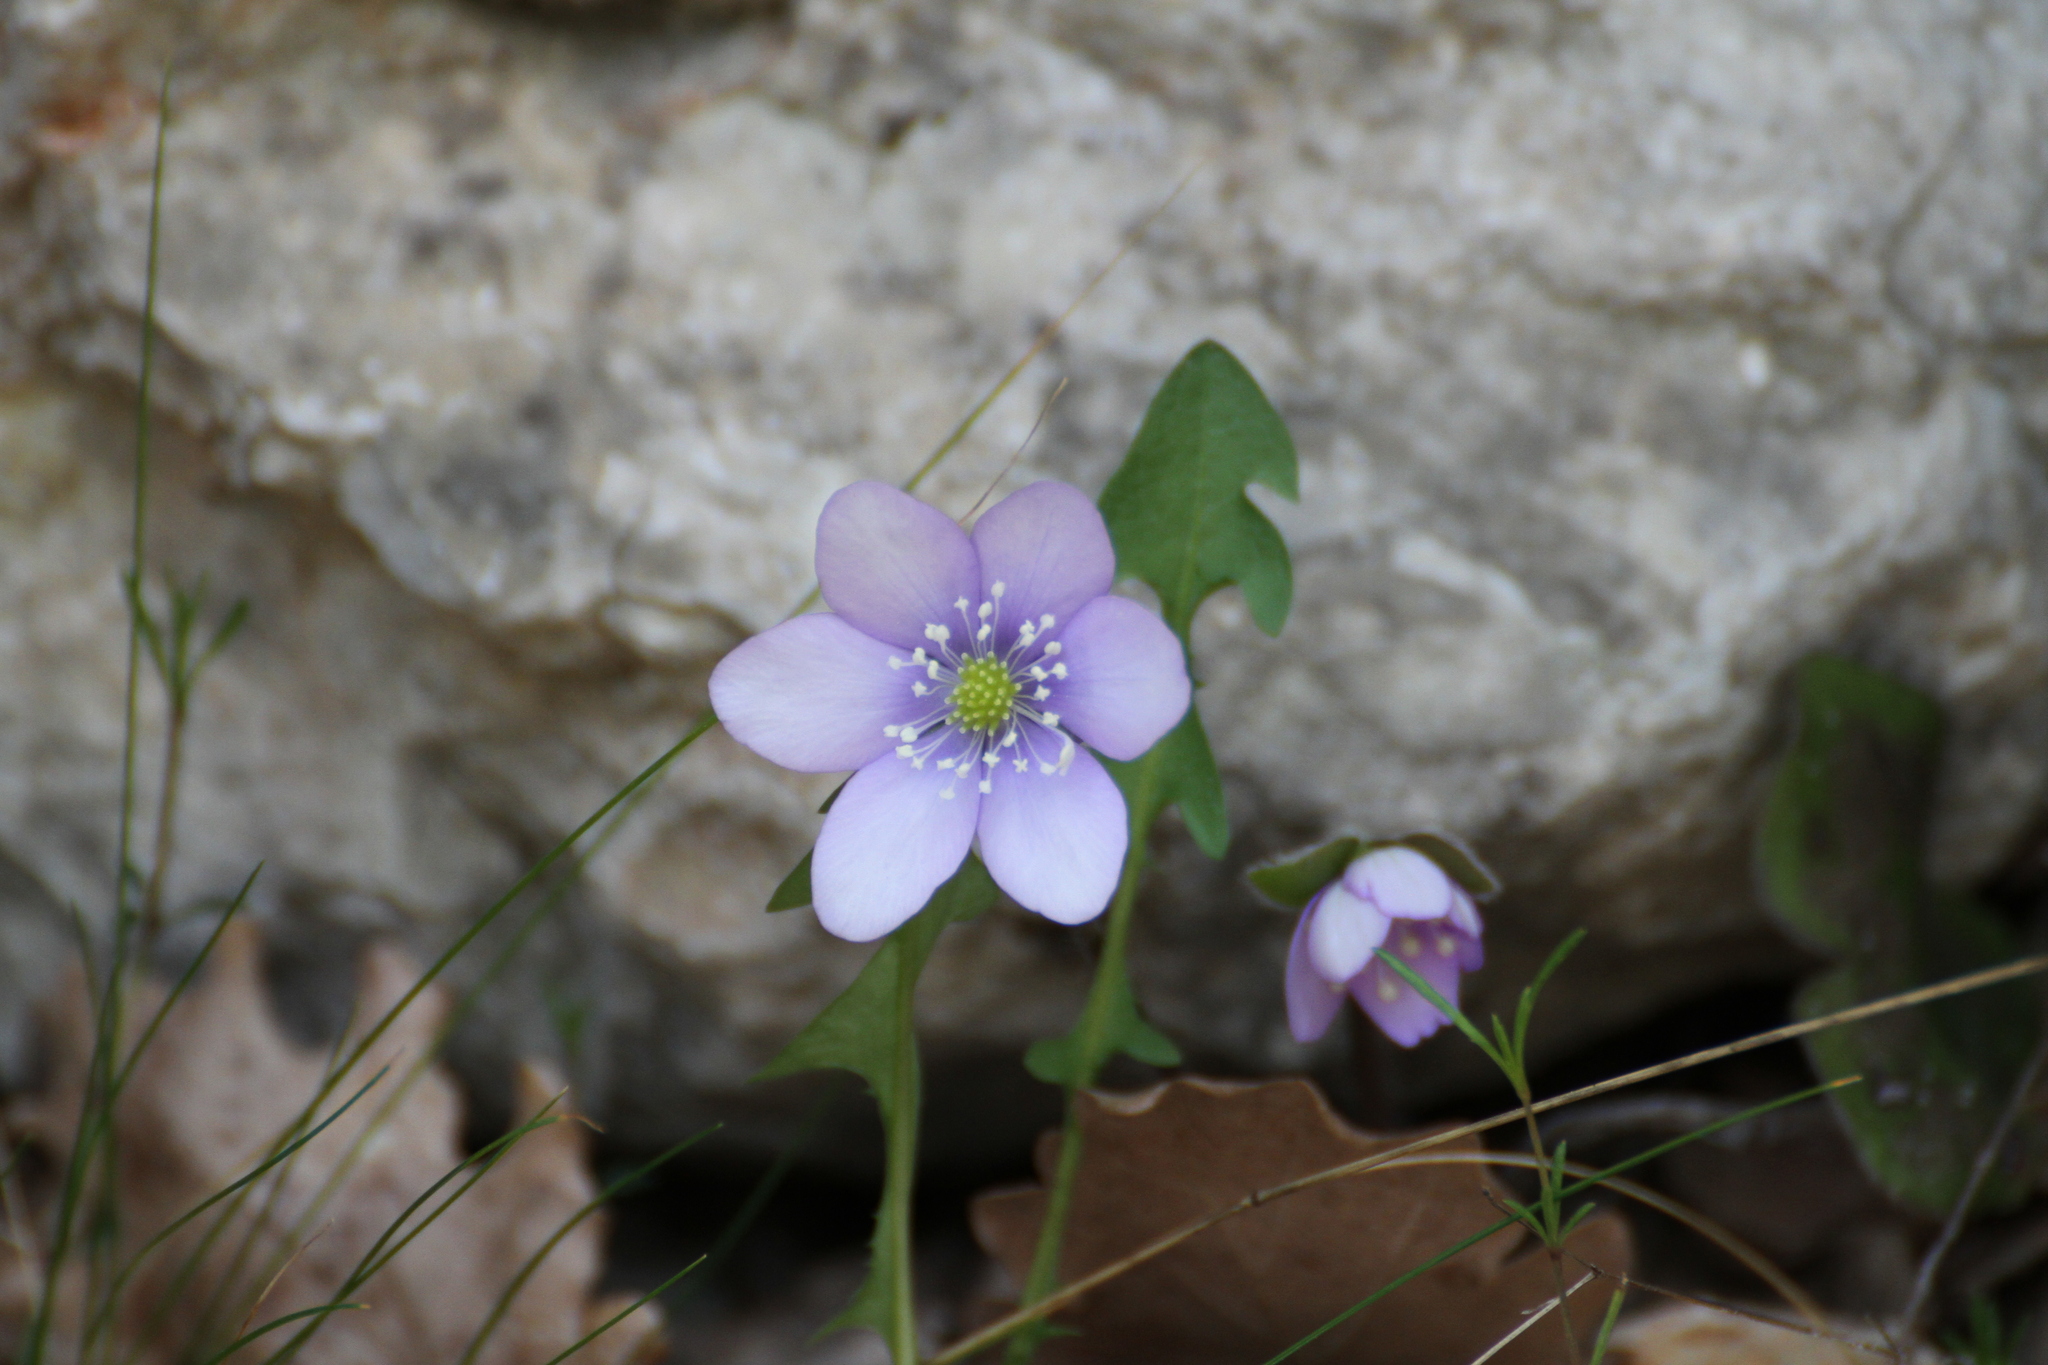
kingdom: Plantae
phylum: Tracheophyta
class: Magnoliopsida
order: Ranunculales
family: Ranunculaceae
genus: Hepatica
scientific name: Hepatica nobilis
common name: Liverleaf
